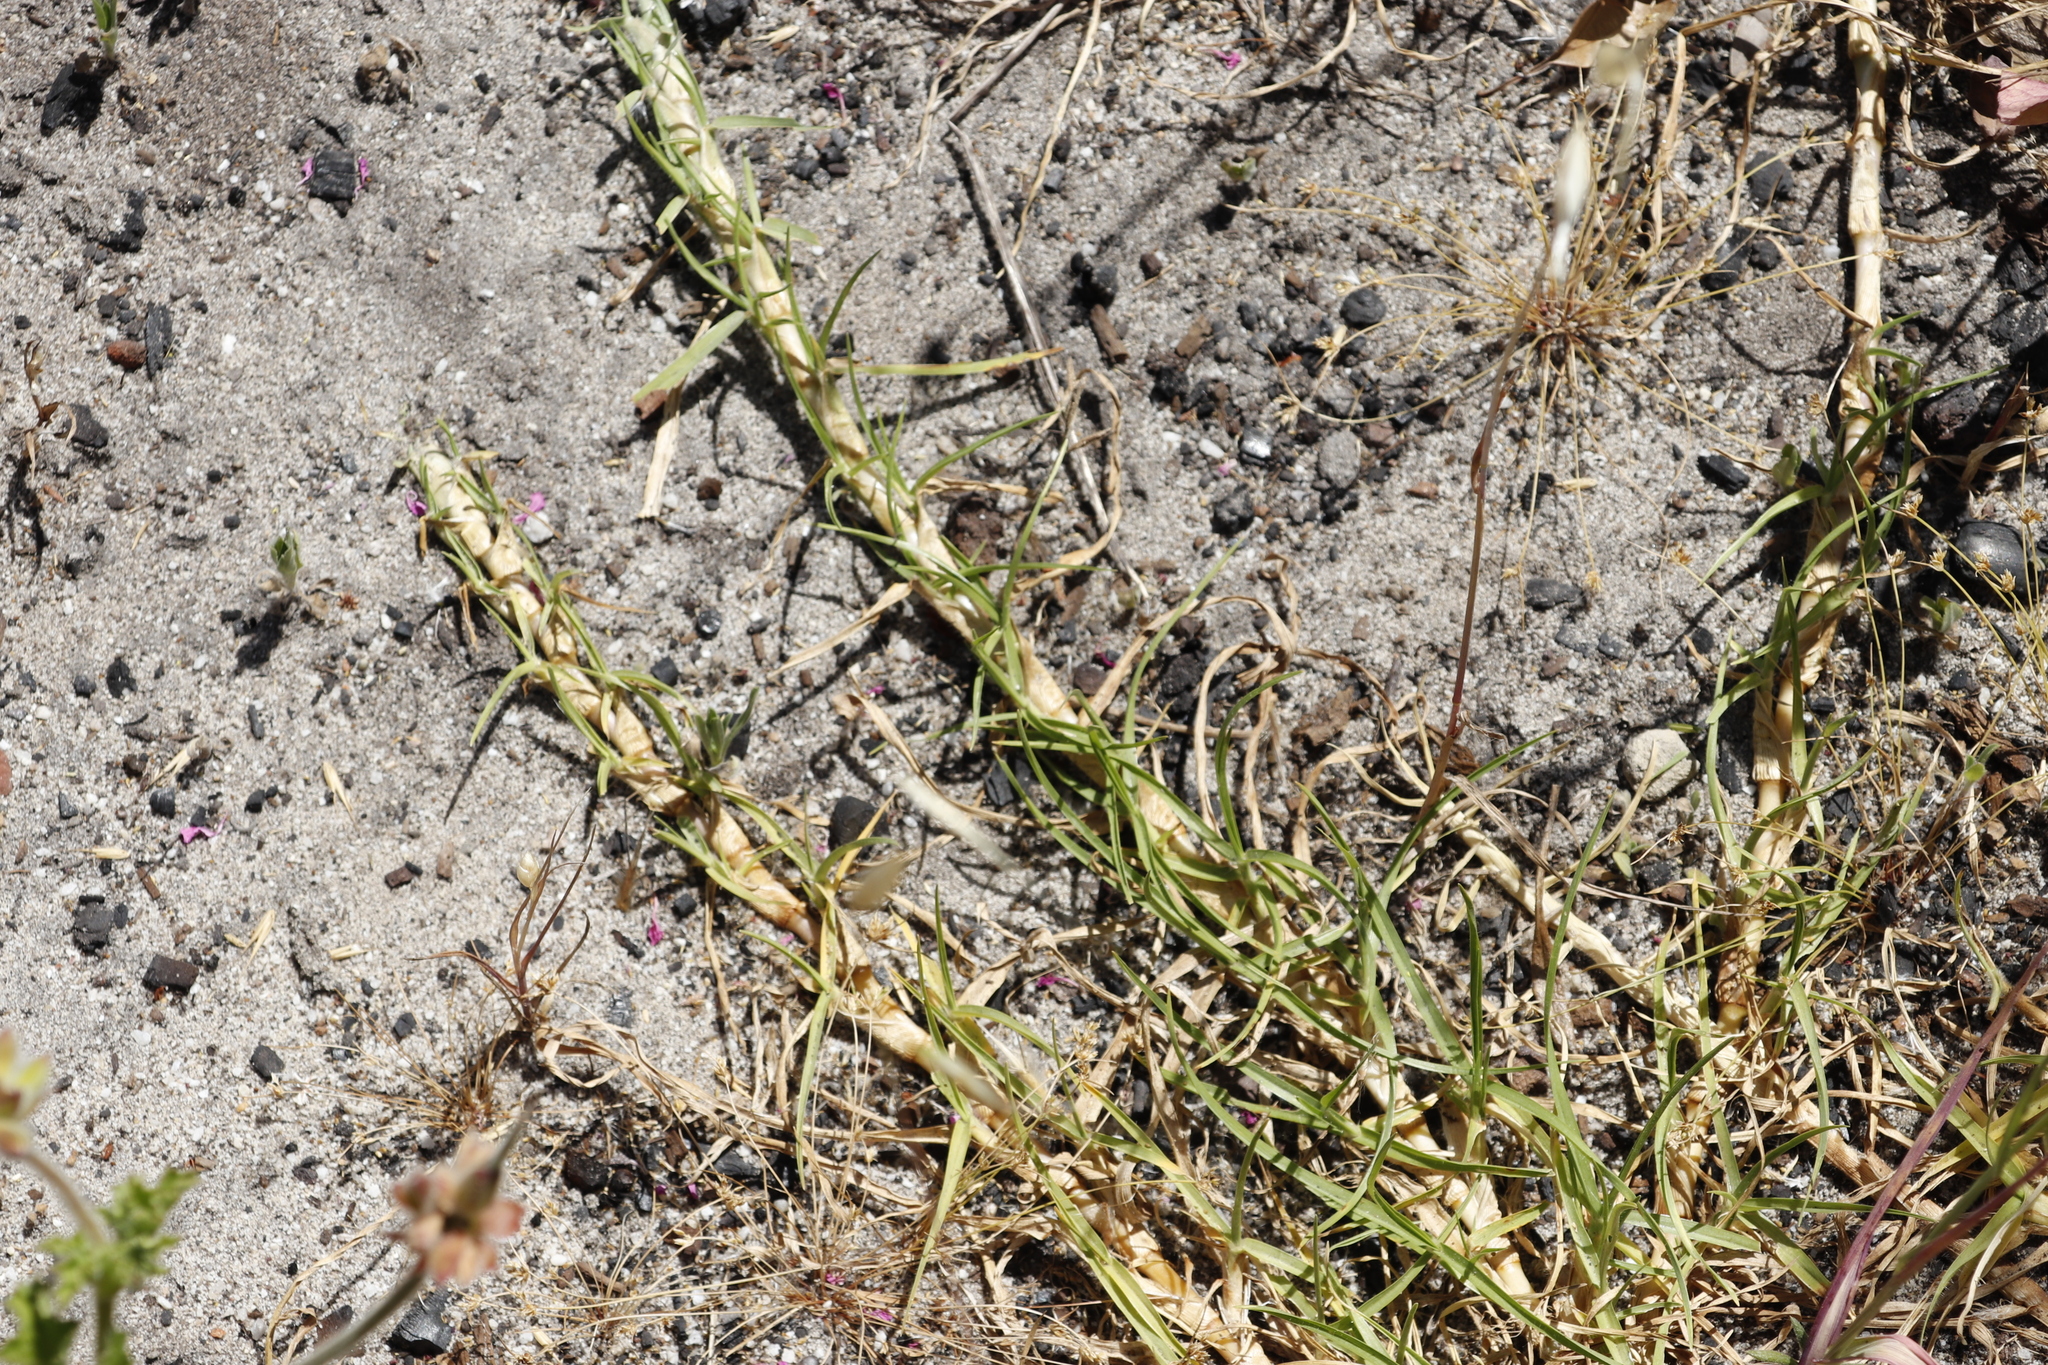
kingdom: Plantae
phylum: Tracheophyta
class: Liliopsida
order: Poales
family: Poaceae
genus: Cenchrus
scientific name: Cenchrus clandestinus
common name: Kikuyugrass
